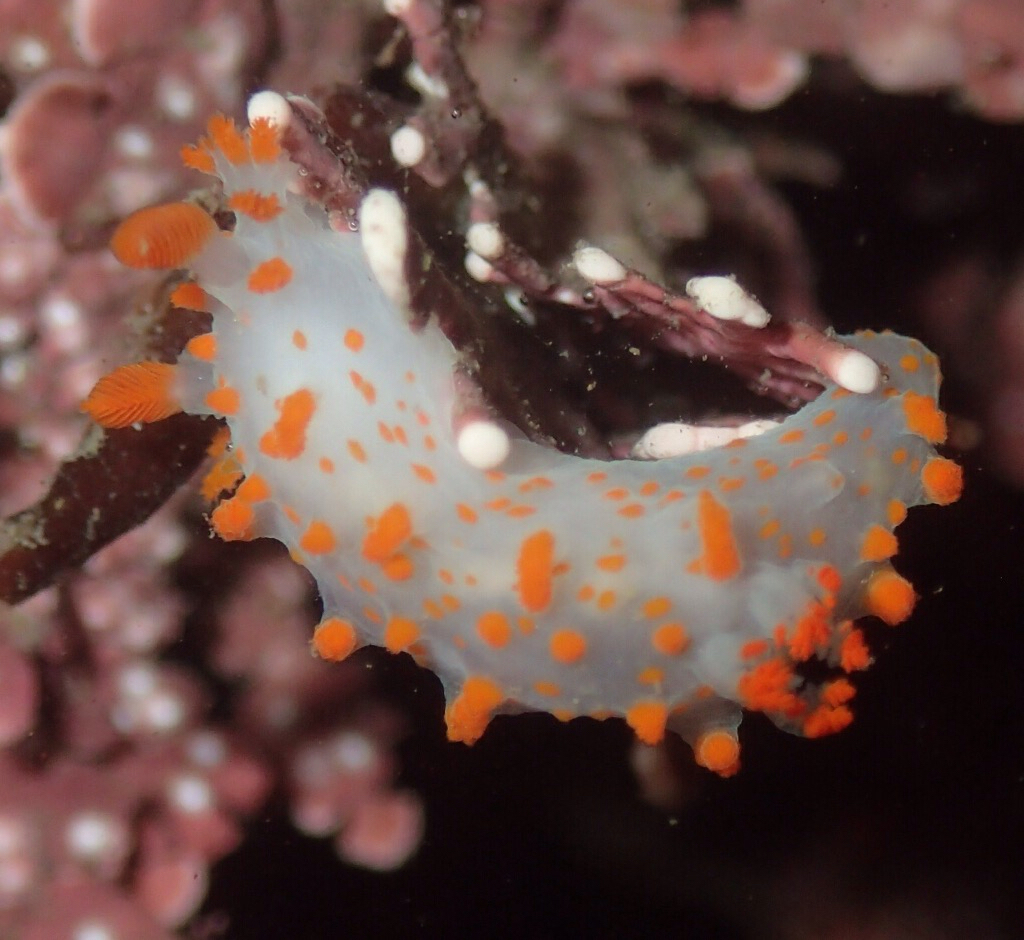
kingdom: Animalia
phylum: Mollusca
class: Gastropoda
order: Nudibranchia
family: Polyceridae
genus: Triopha
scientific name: Triopha catalinae
